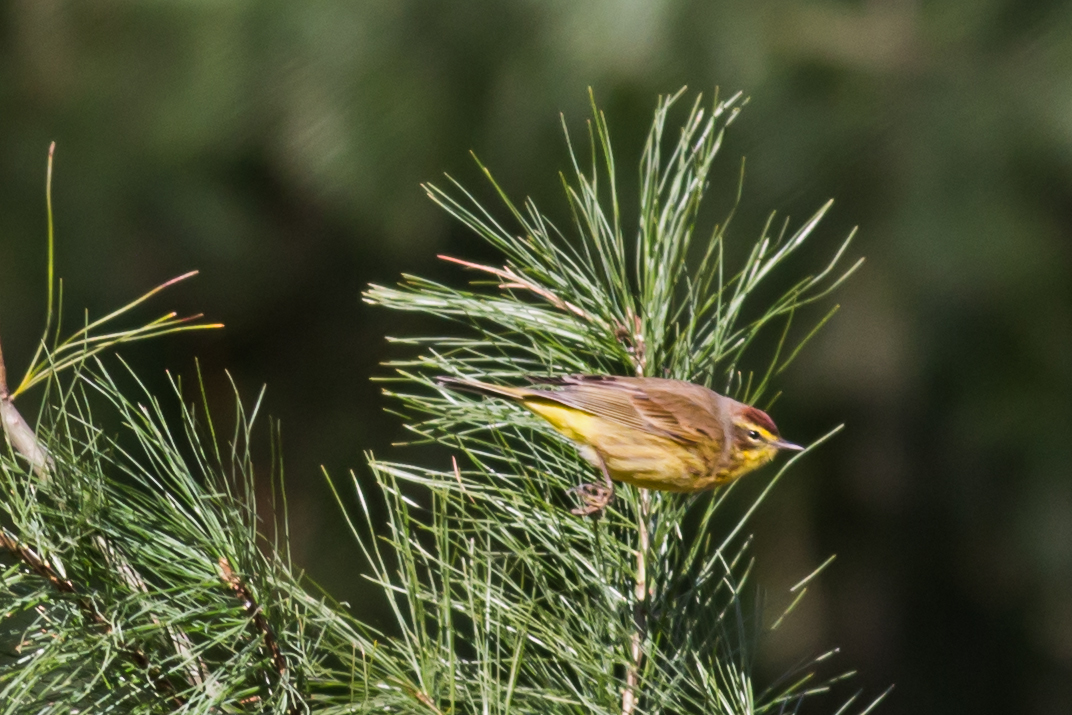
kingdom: Animalia
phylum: Chordata
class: Aves
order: Passeriformes
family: Parulidae
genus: Setophaga
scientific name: Setophaga palmarum
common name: Palm warbler
